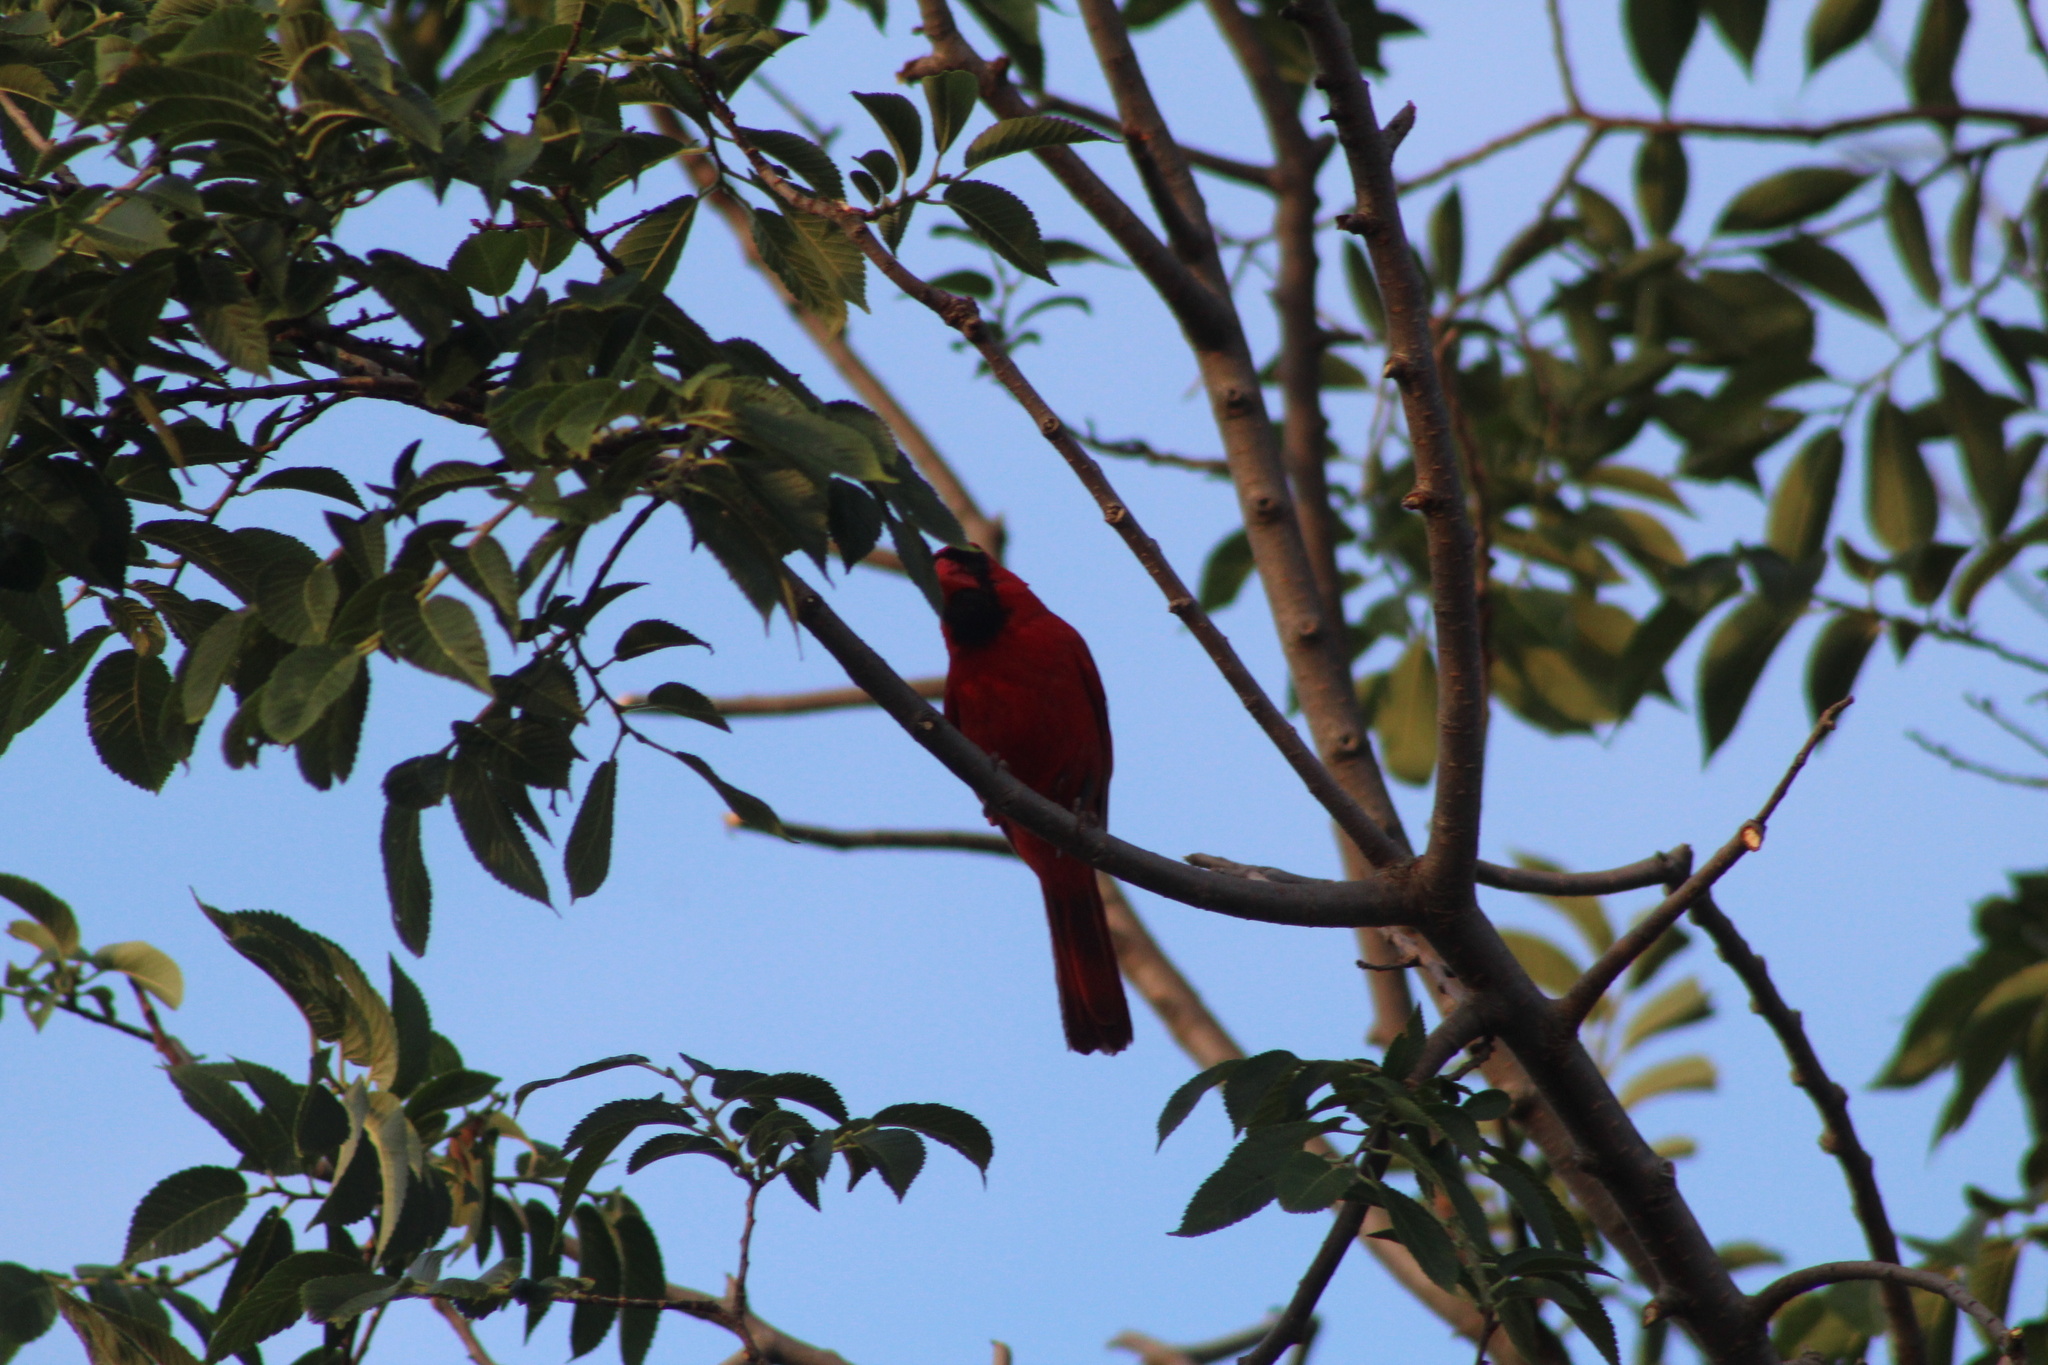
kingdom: Animalia
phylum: Chordata
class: Aves
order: Passeriformes
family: Cardinalidae
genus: Cardinalis
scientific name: Cardinalis cardinalis
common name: Northern cardinal
